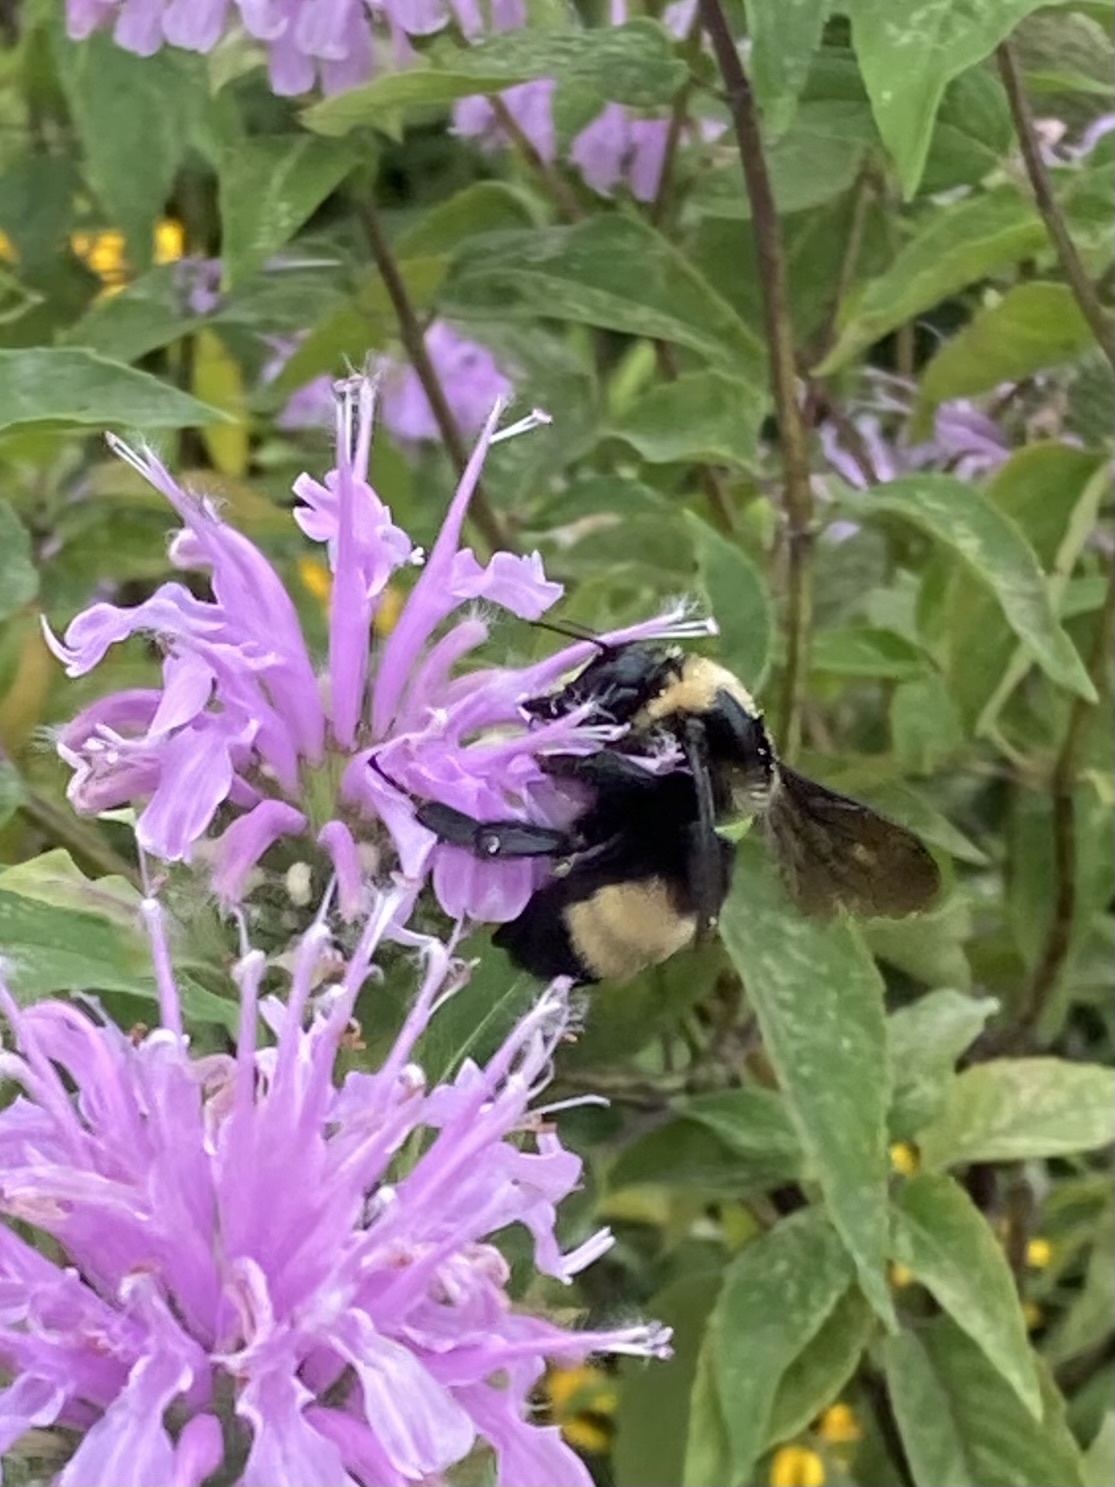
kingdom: Animalia
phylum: Arthropoda
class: Insecta
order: Hymenoptera
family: Apidae
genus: Bombus
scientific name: Bombus auricomus
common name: Black and gold bumble bee
